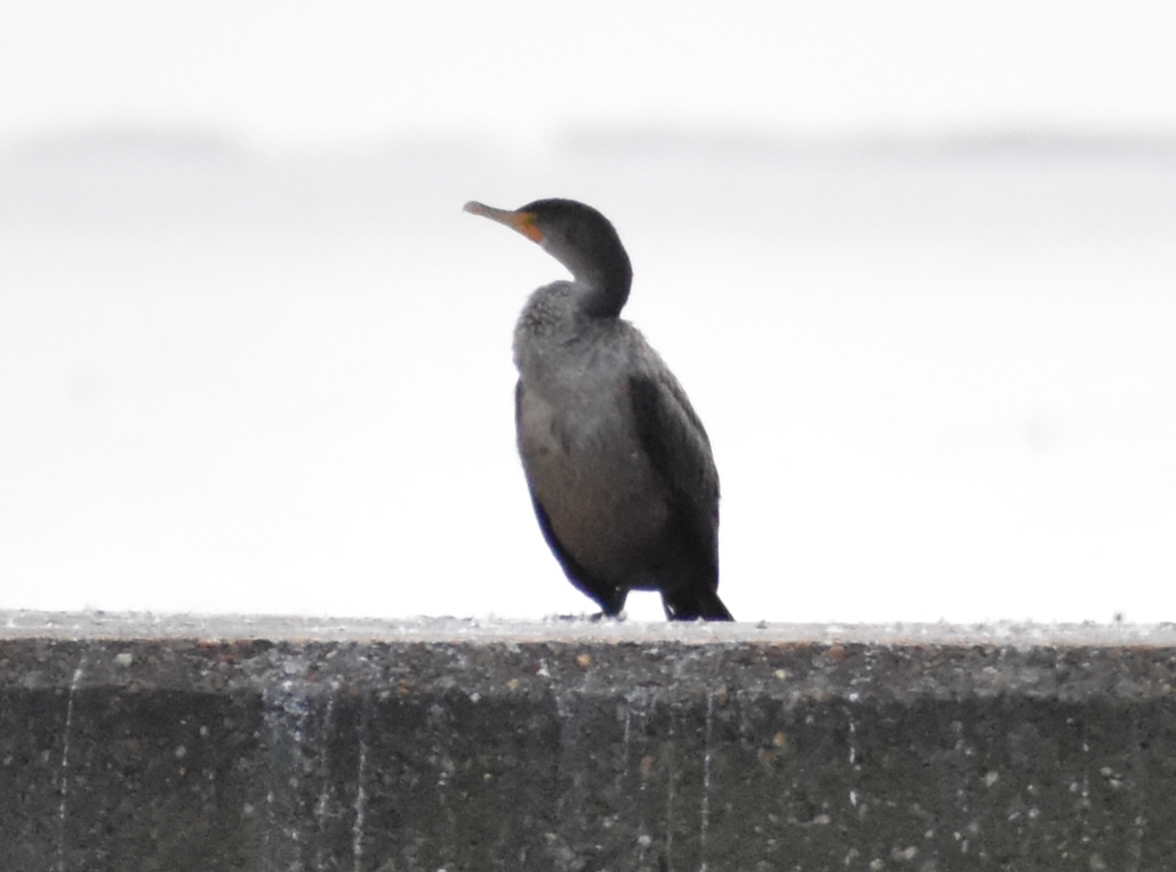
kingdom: Animalia
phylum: Chordata
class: Aves
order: Suliformes
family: Phalacrocoracidae
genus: Phalacrocorax
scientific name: Phalacrocorax auritus
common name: Double-crested cormorant
